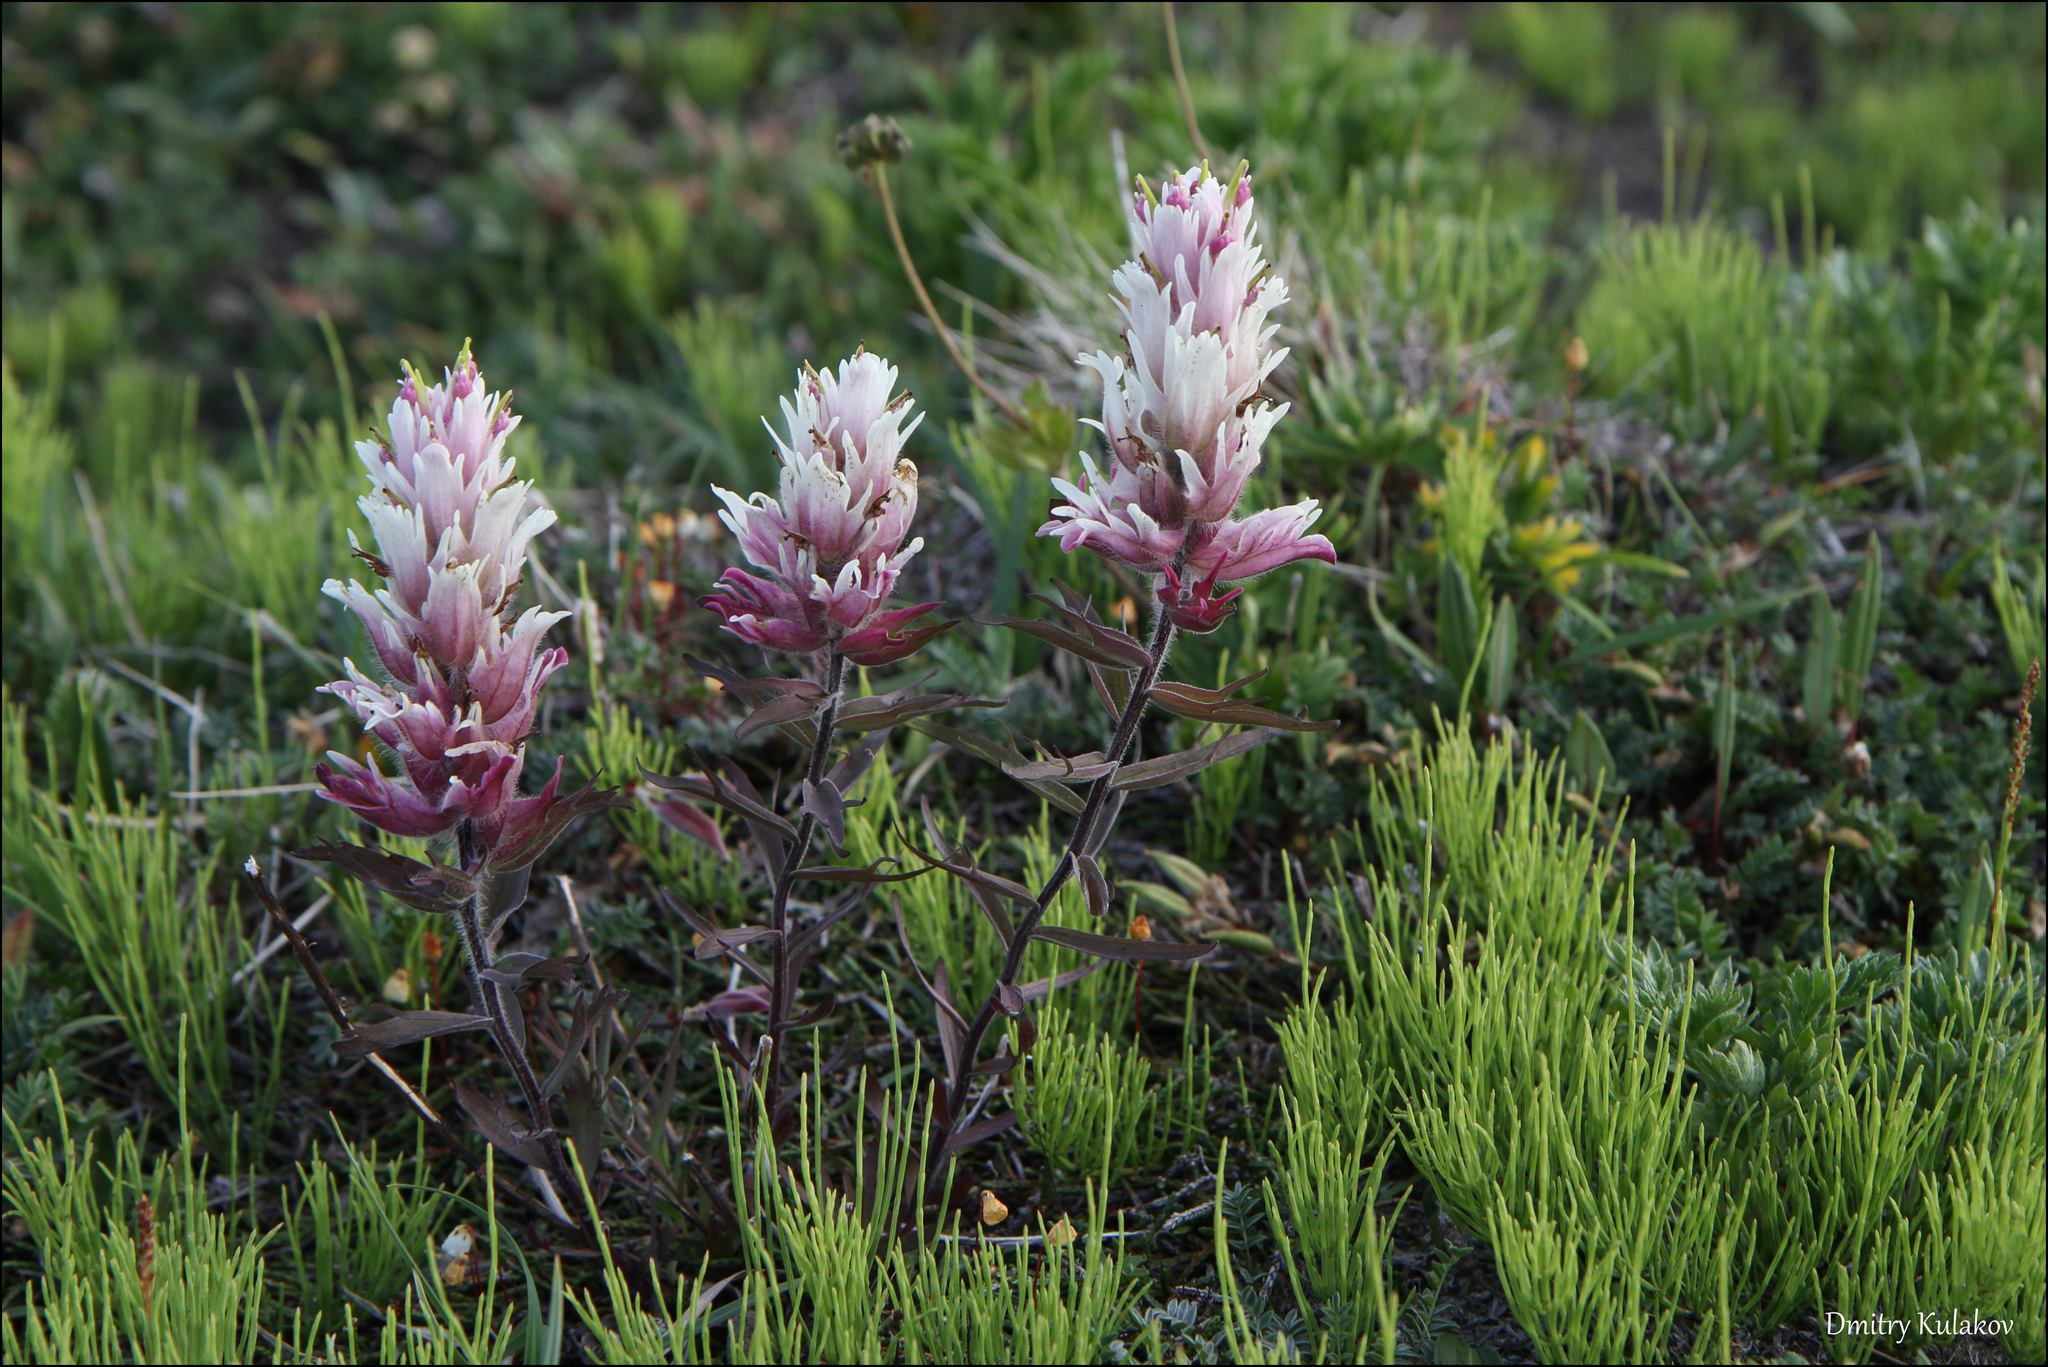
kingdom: Plantae
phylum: Tracheophyta
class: Magnoliopsida
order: Lamiales
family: Orobanchaceae
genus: Castilleja
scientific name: Castilleja pallida
